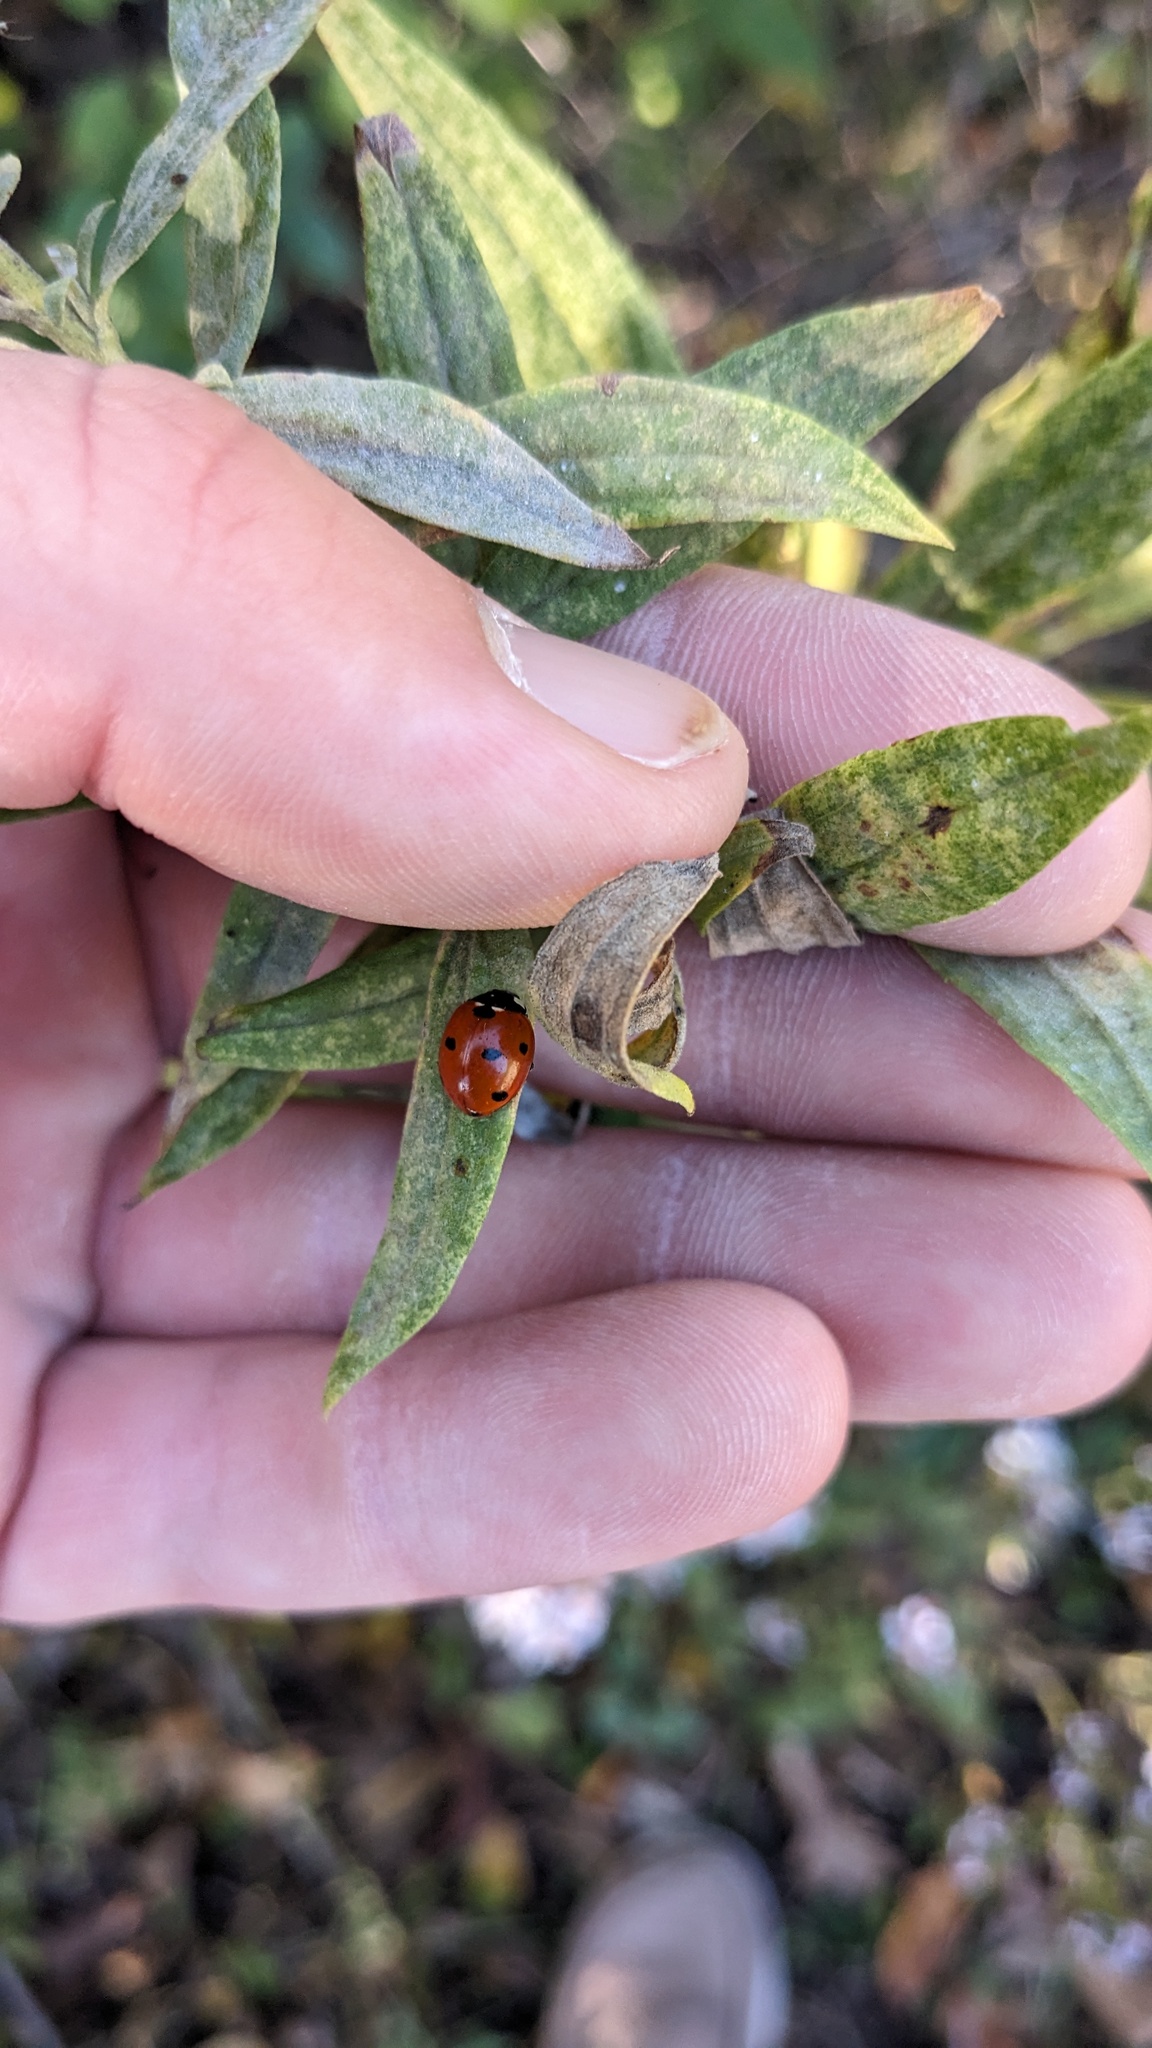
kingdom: Animalia
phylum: Arthropoda
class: Insecta
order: Coleoptera
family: Coccinellidae
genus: Coccinella
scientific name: Coccinella septempunctata
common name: Sevenspotted lady beetle
